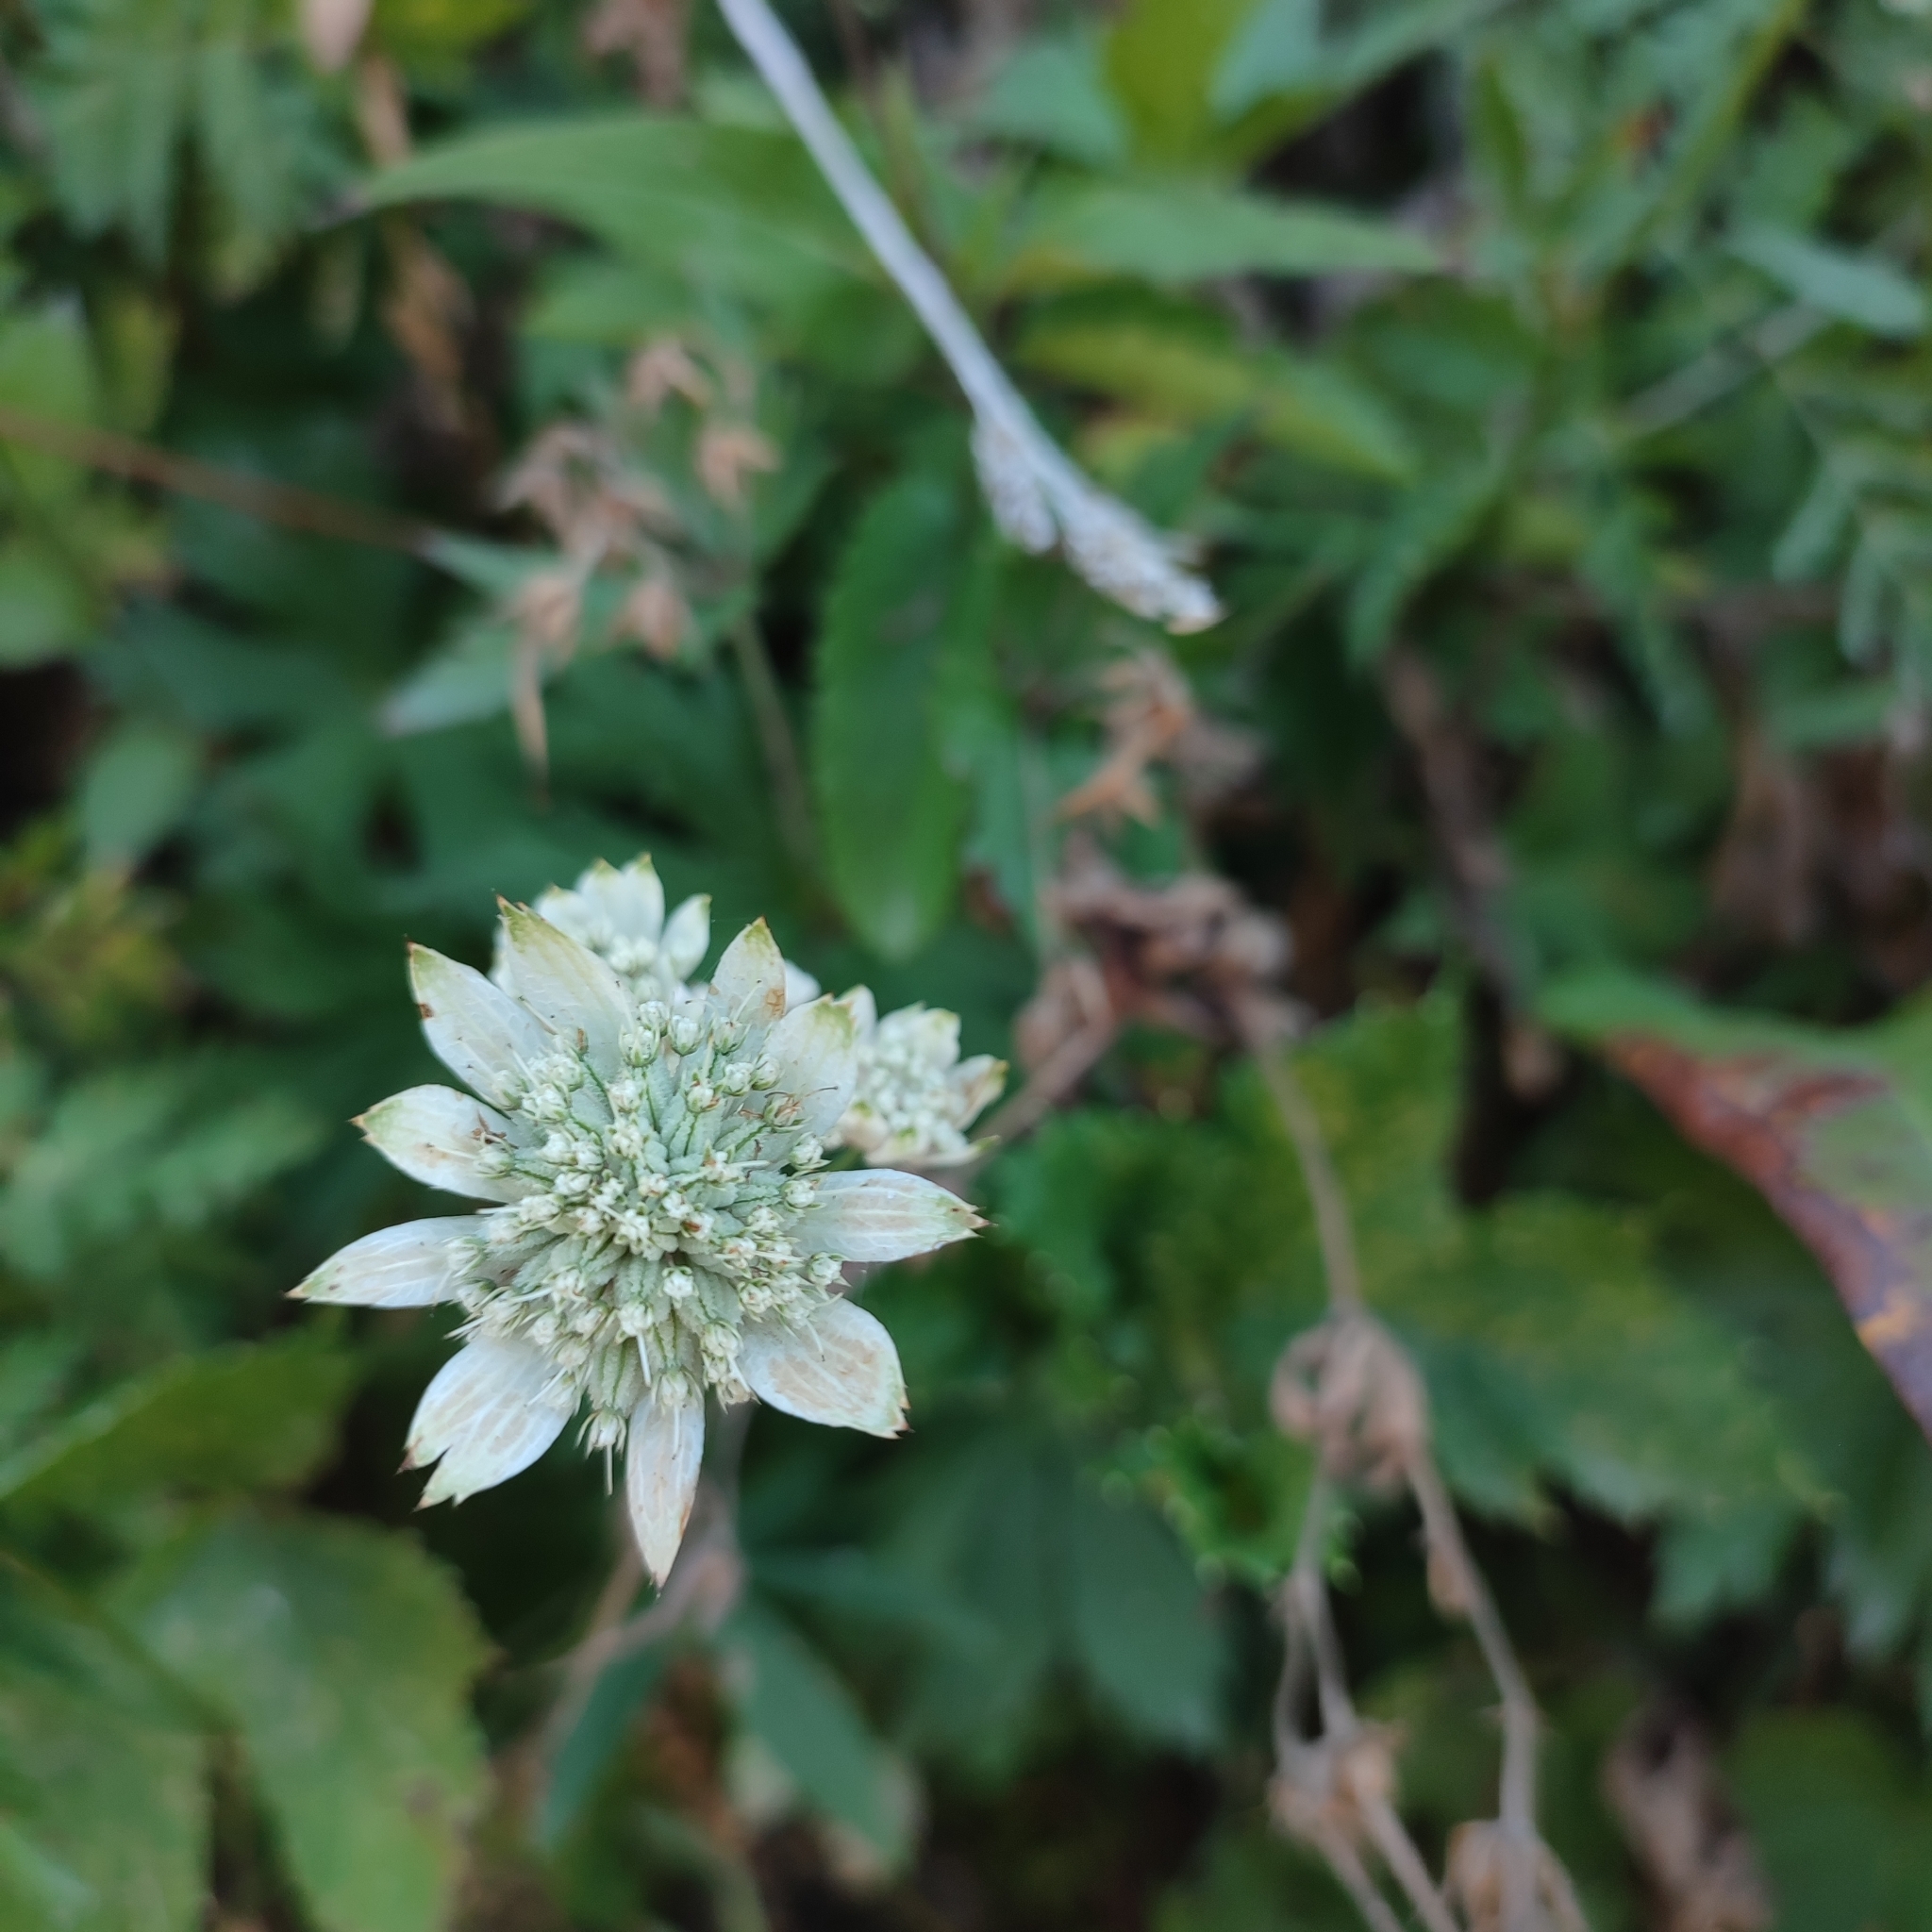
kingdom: Plantae
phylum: Tracheophyta
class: Magnoliopsida
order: Apiales
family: Apiaceae
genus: Astrantia
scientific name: Astrantia major
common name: Greater masterwort
